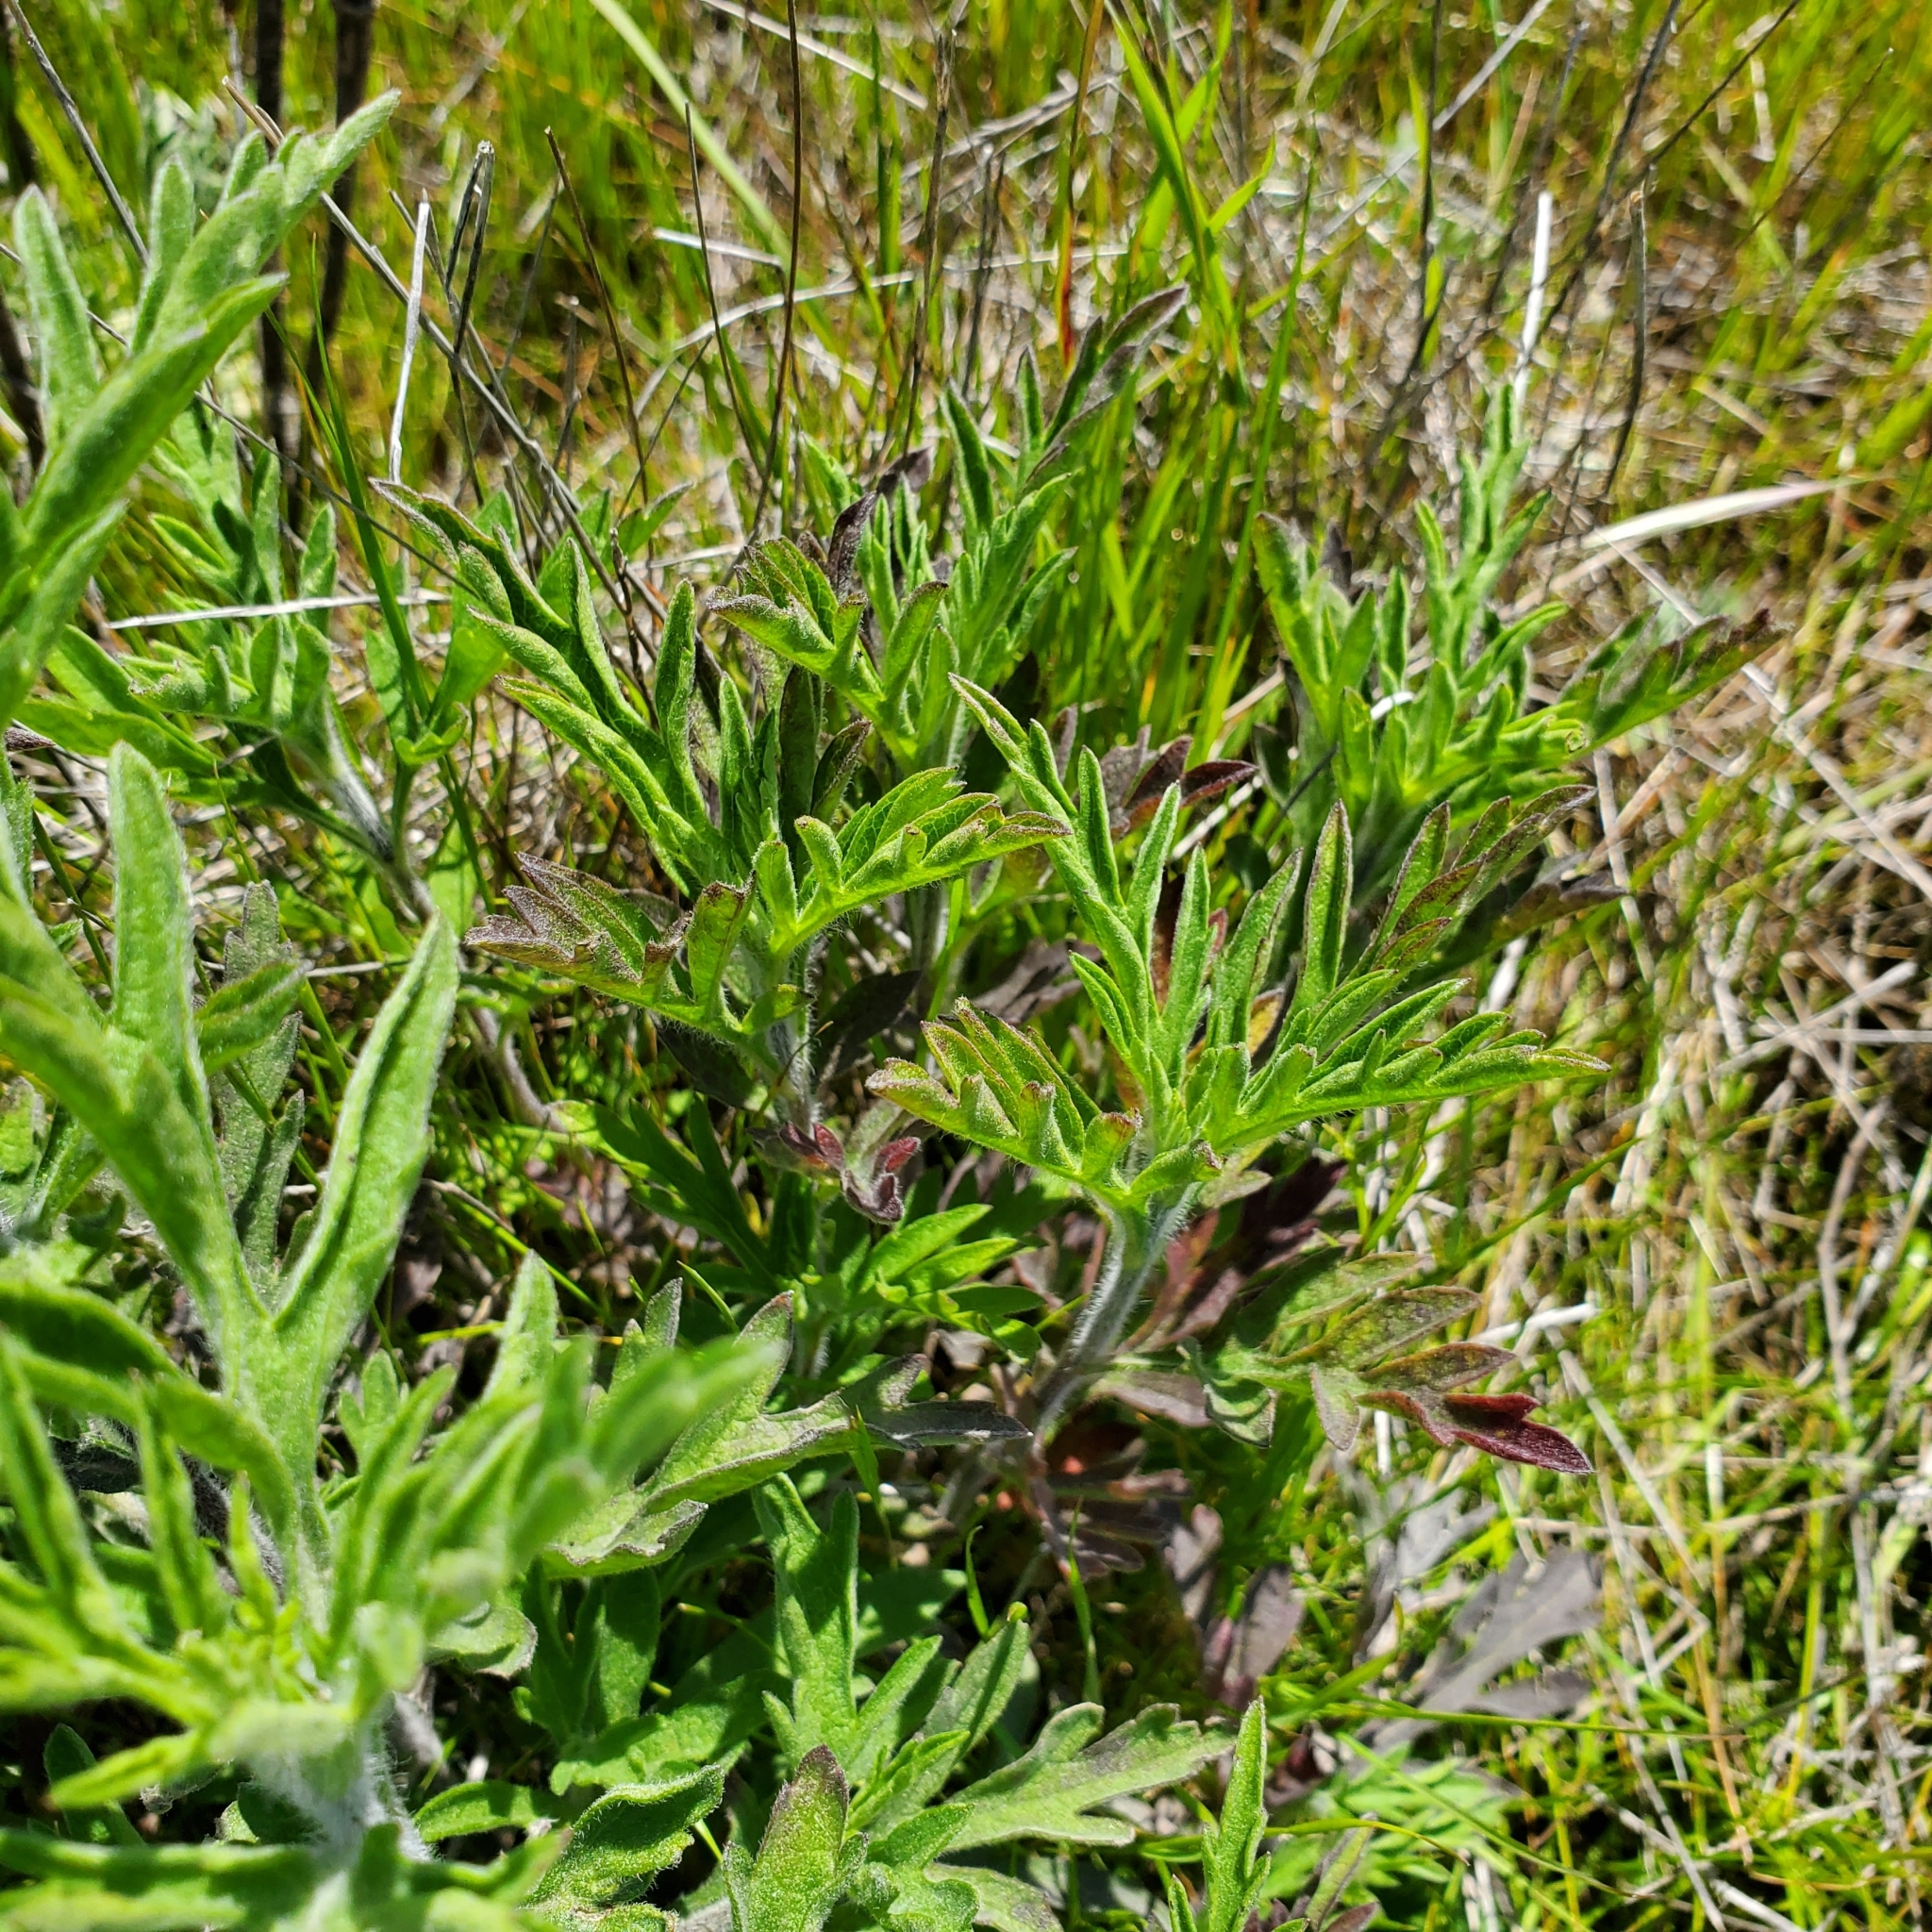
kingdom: Plantae
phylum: Tracheophyta
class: Magnoliopsida
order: Asterales
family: Asteraceae
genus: Ambrosia
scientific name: Ambrosia psilostachya
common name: Perennial ragweed
